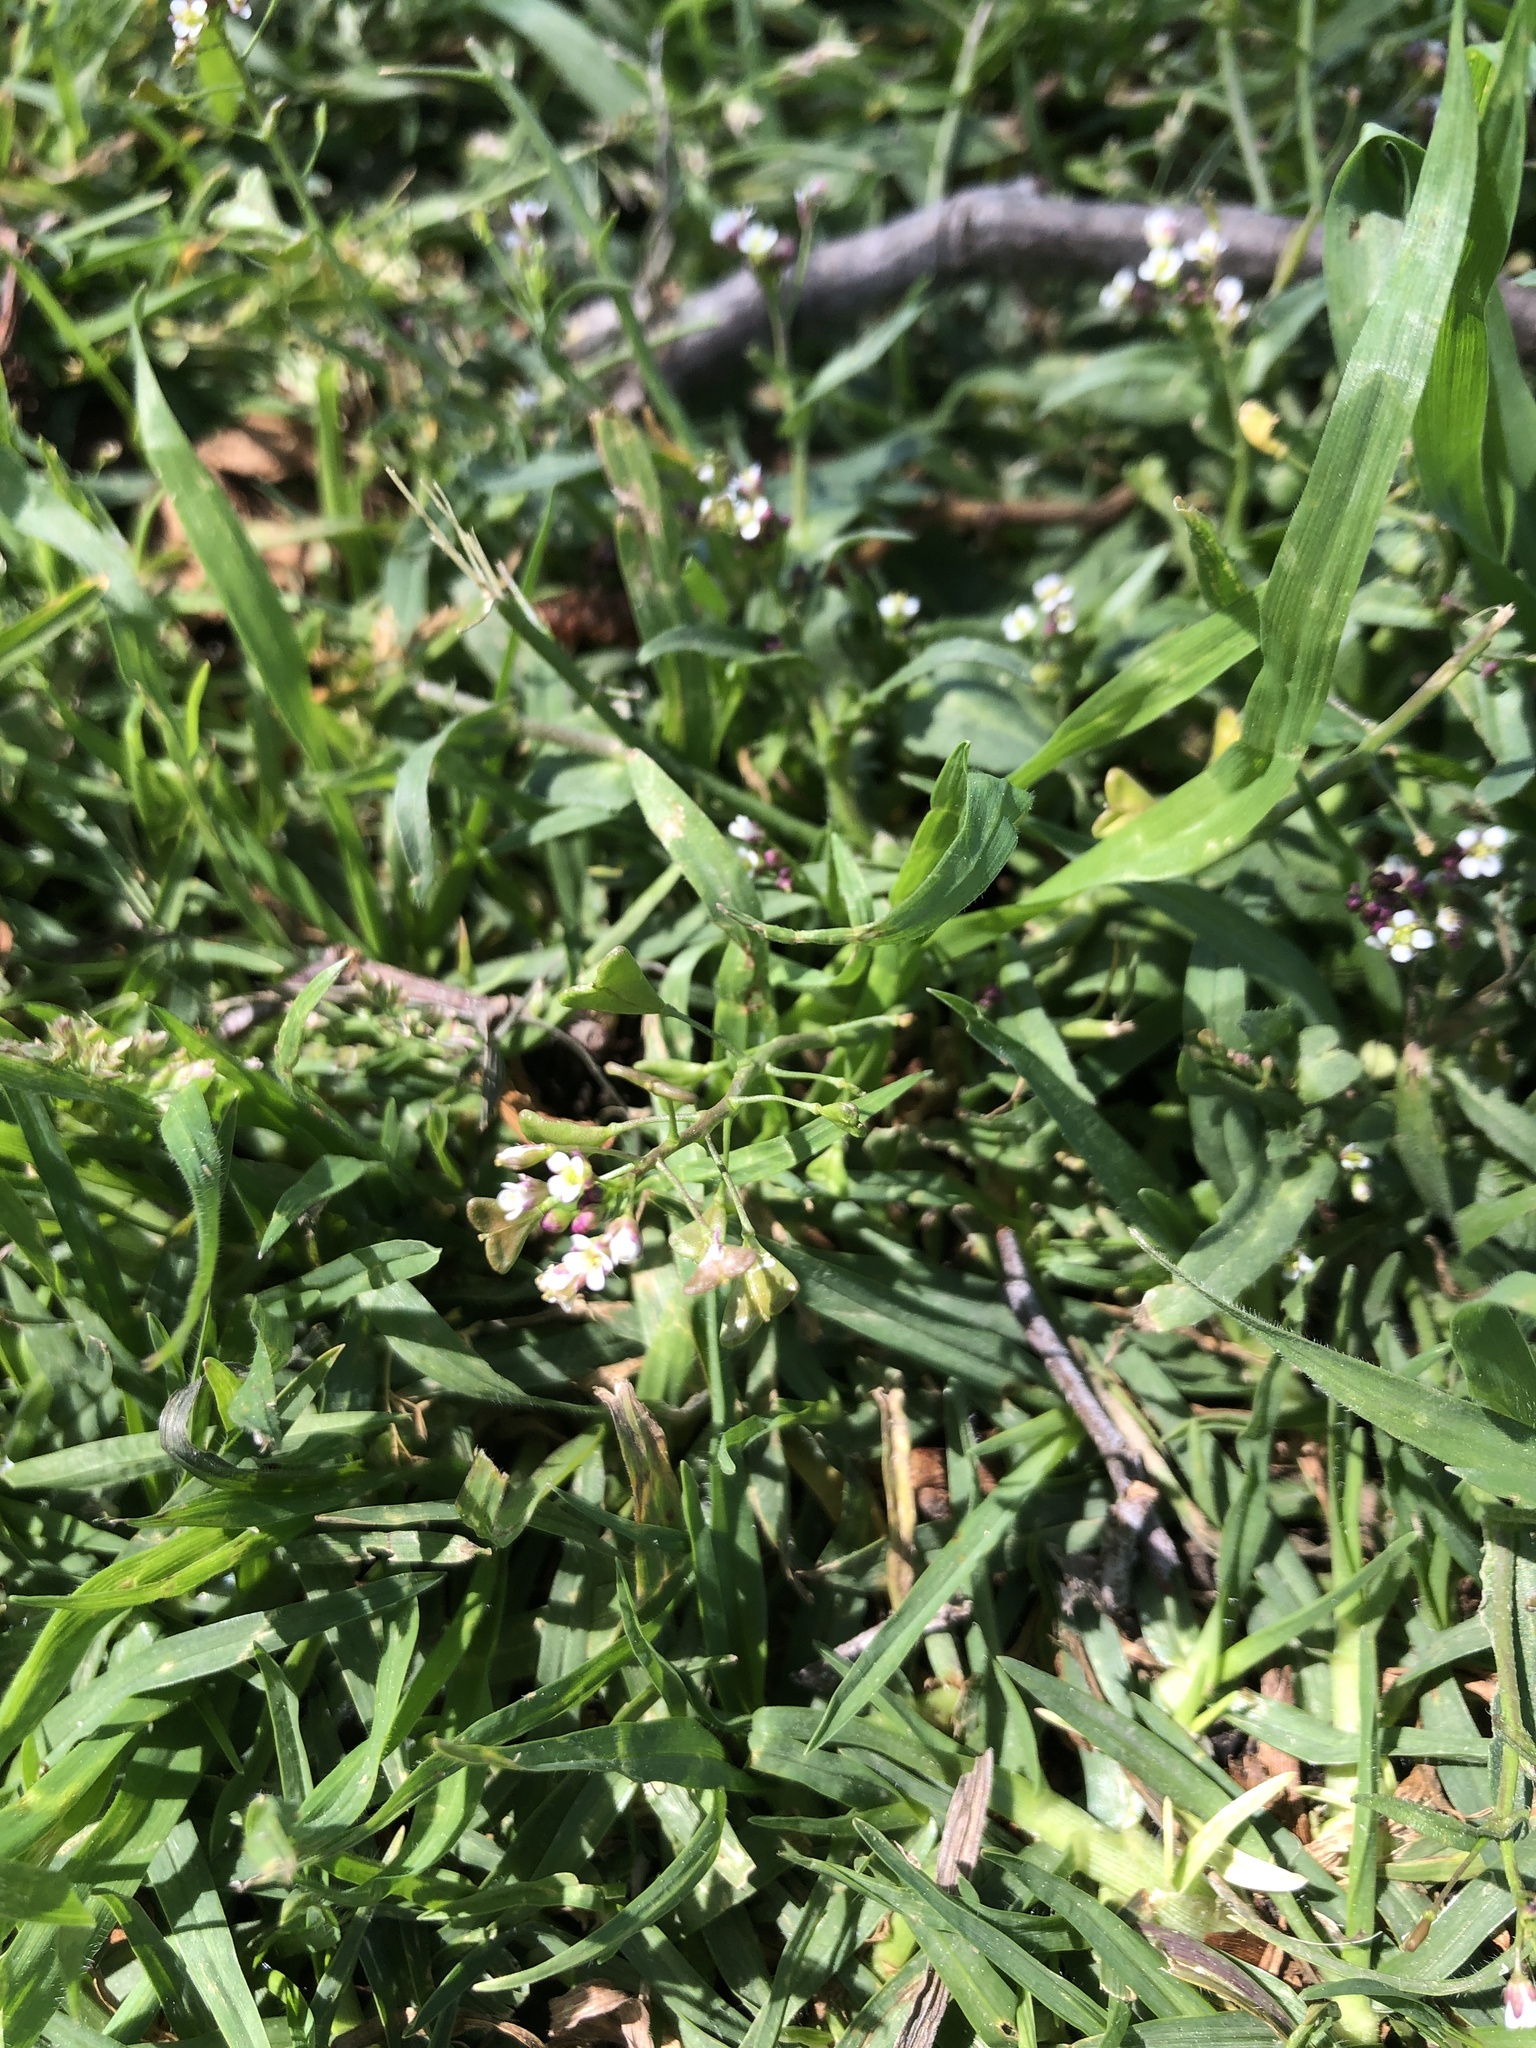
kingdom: Plantae
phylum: Tracheophyta
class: Magnoliopsida
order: Brassicales
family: Brassicaceae
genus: Capsella
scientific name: Capsella bursa-pastoris
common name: Shepherd's purse
